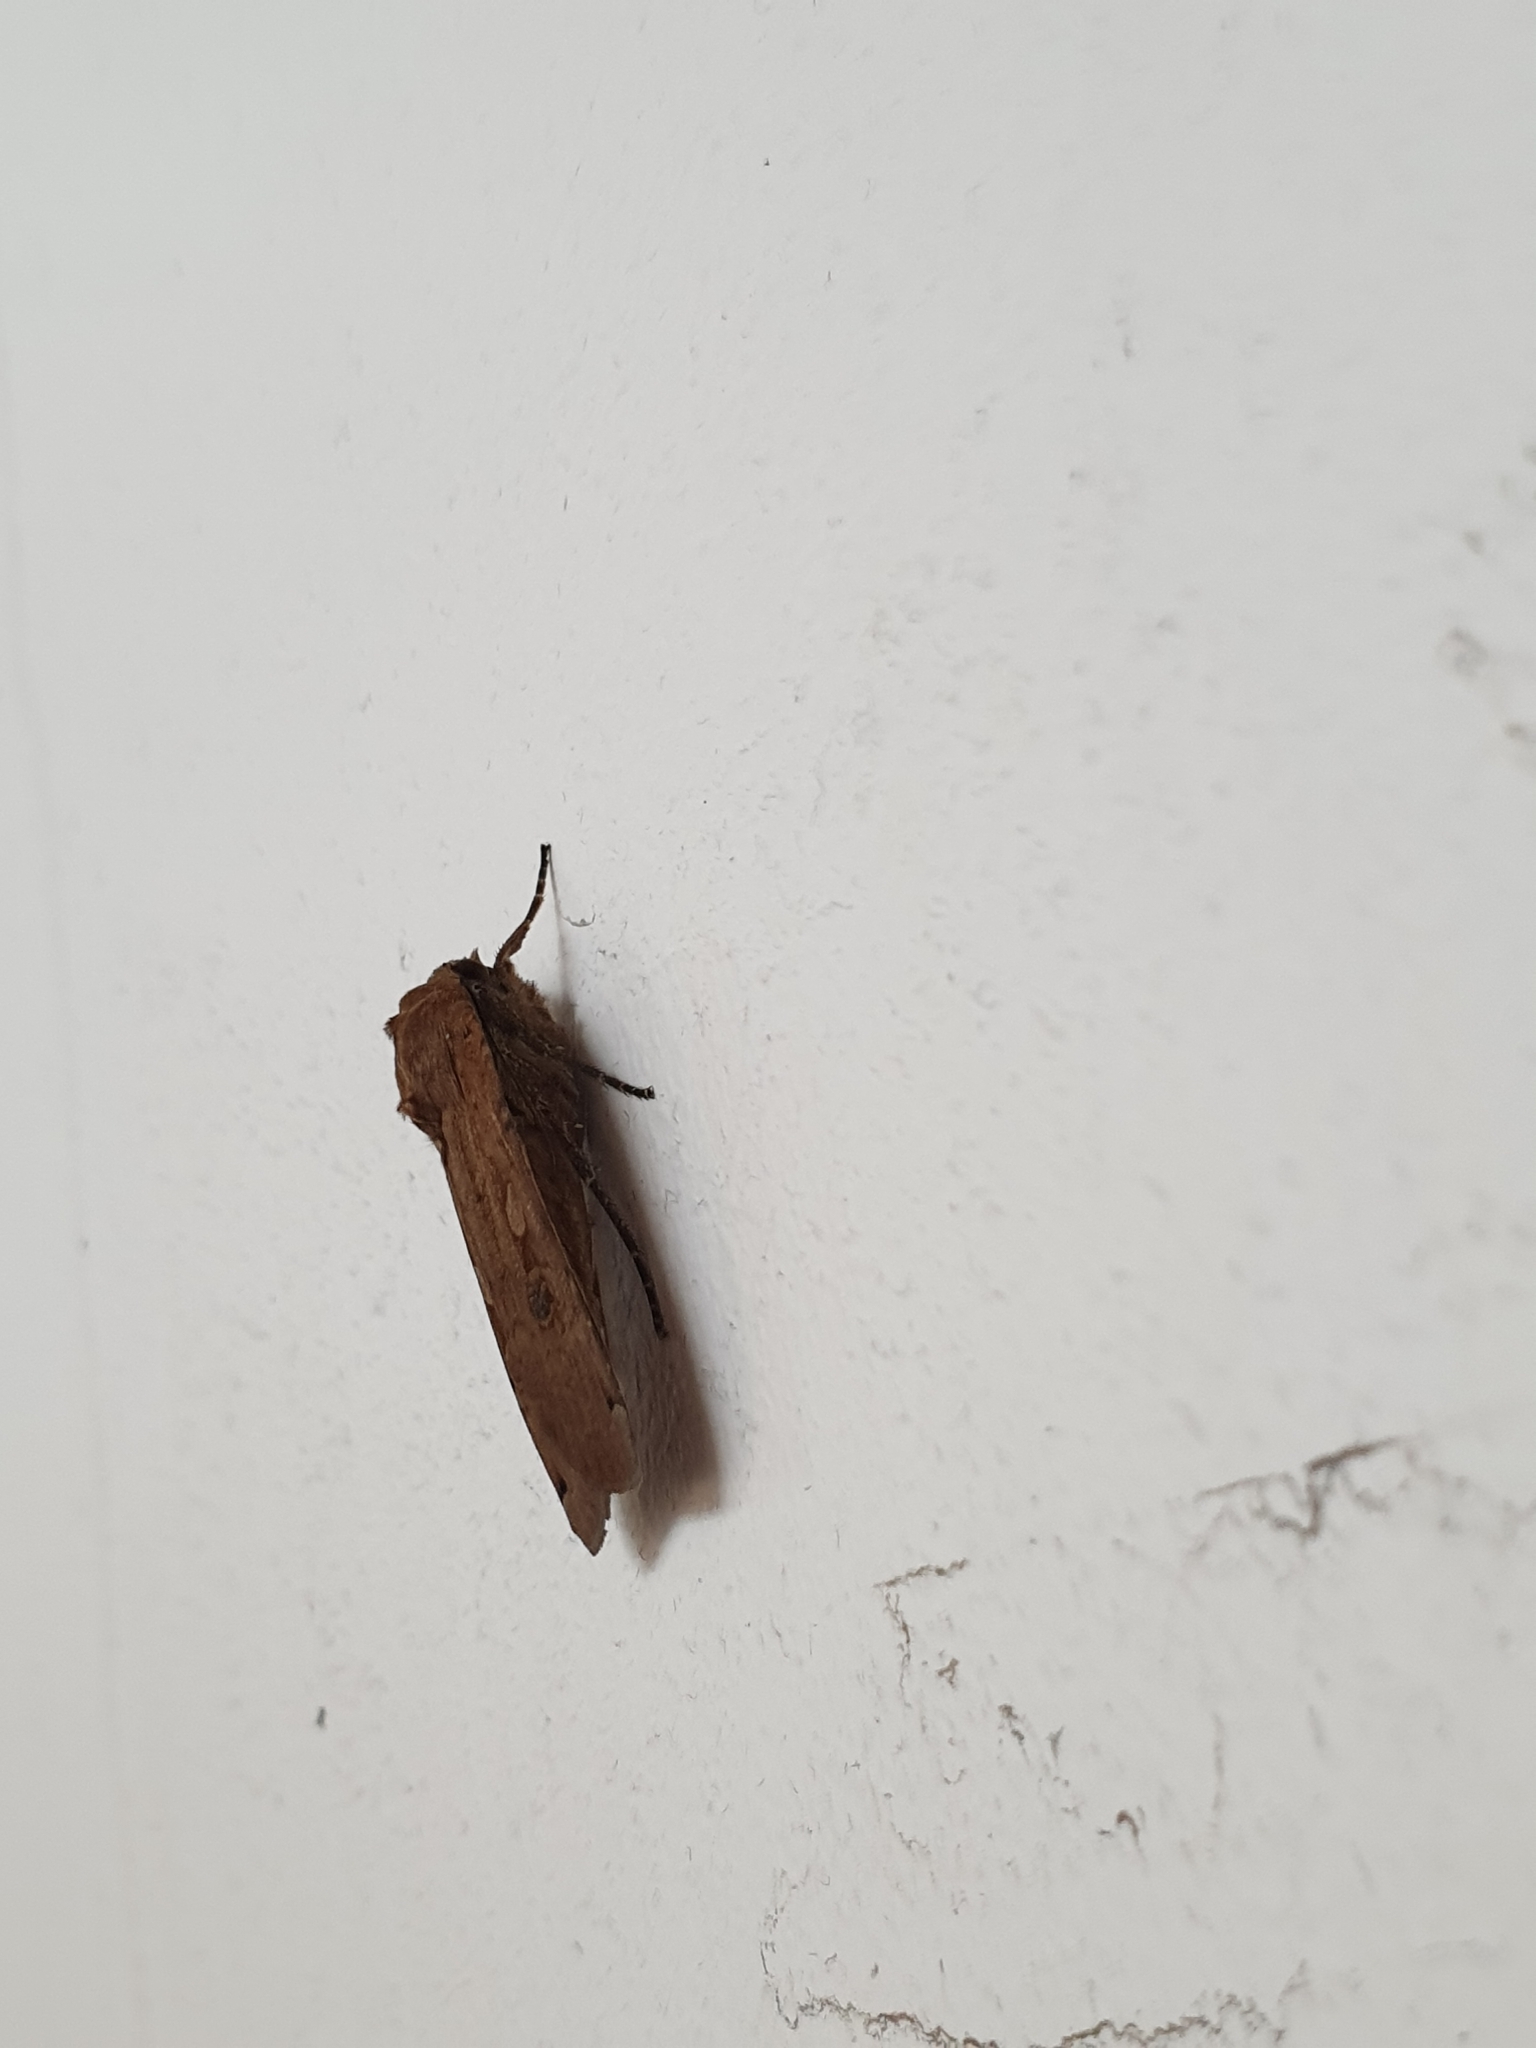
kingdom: Animalia
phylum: Arthropoda
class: Insecta
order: Lepidoptera
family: Noctuidae
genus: Noctua
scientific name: Noctua pronuba
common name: Large yellow underwing
